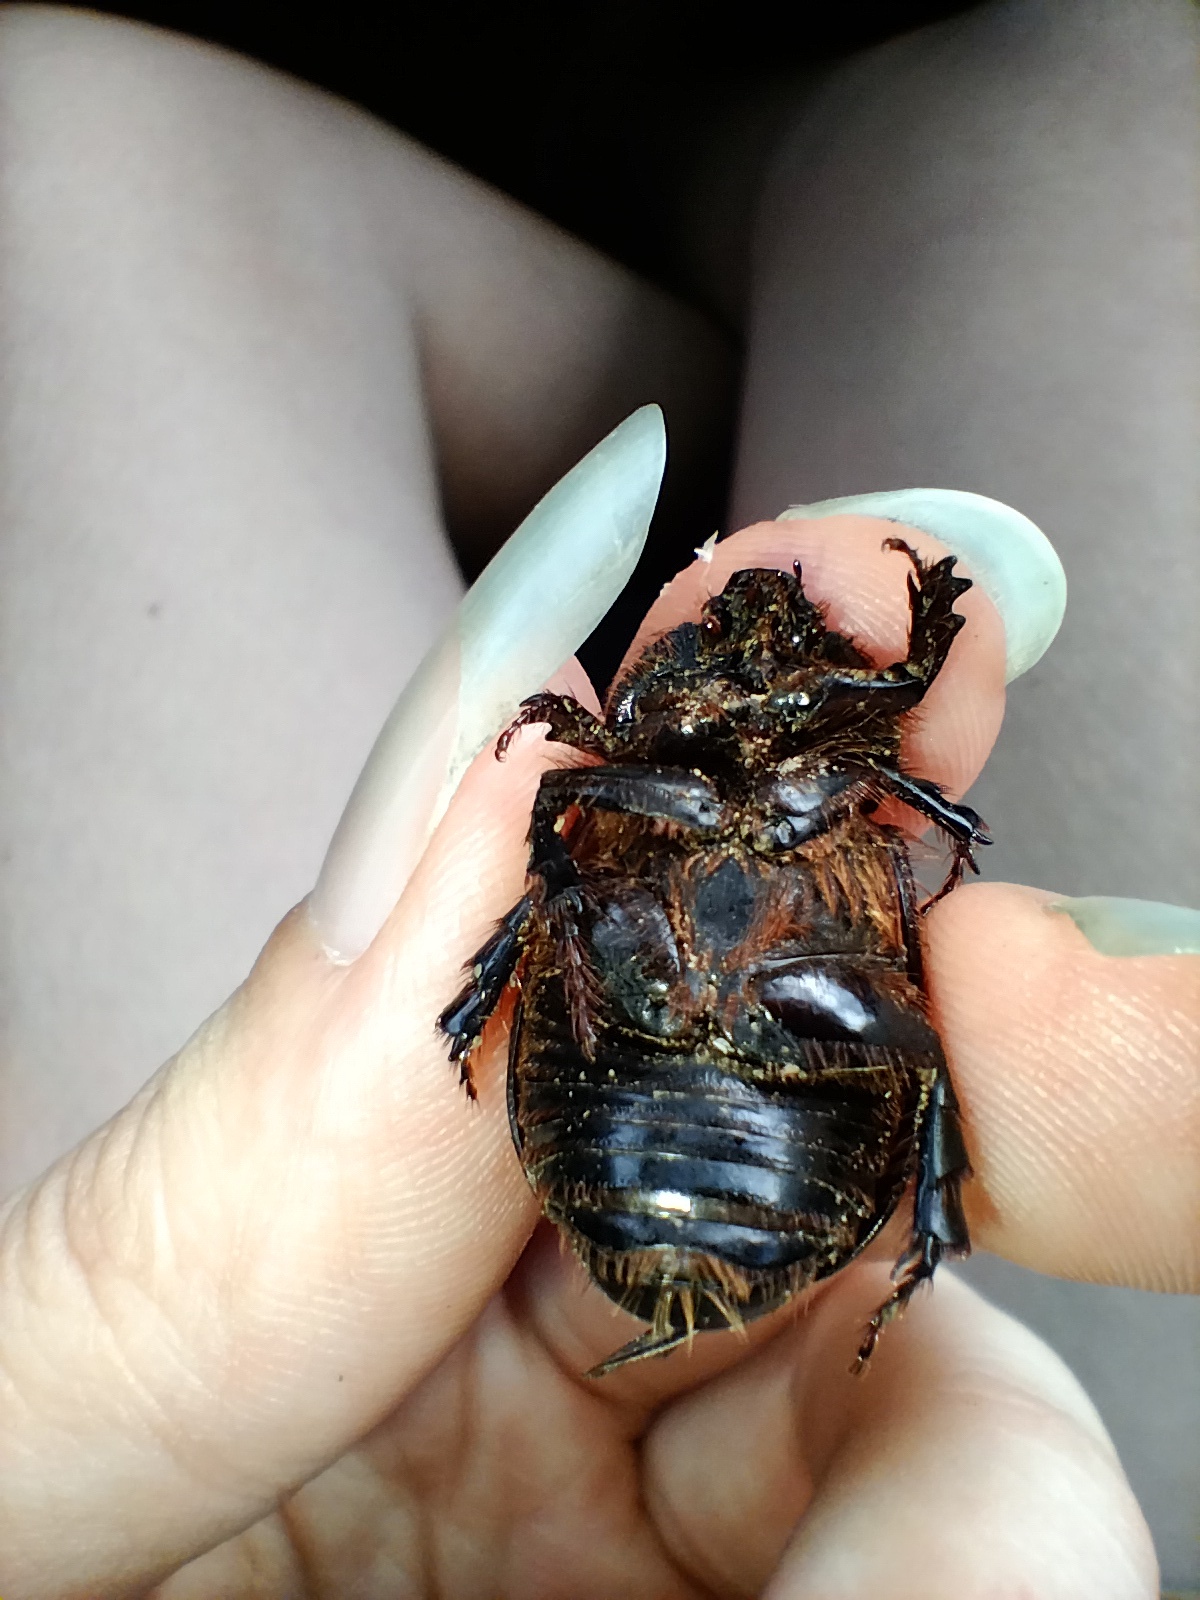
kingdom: Animalia
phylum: Arthropoda
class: Insecta
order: Coleoptera
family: Scarabaeidae
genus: Dasygnathus
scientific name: Dasygnathus trituberculatus
